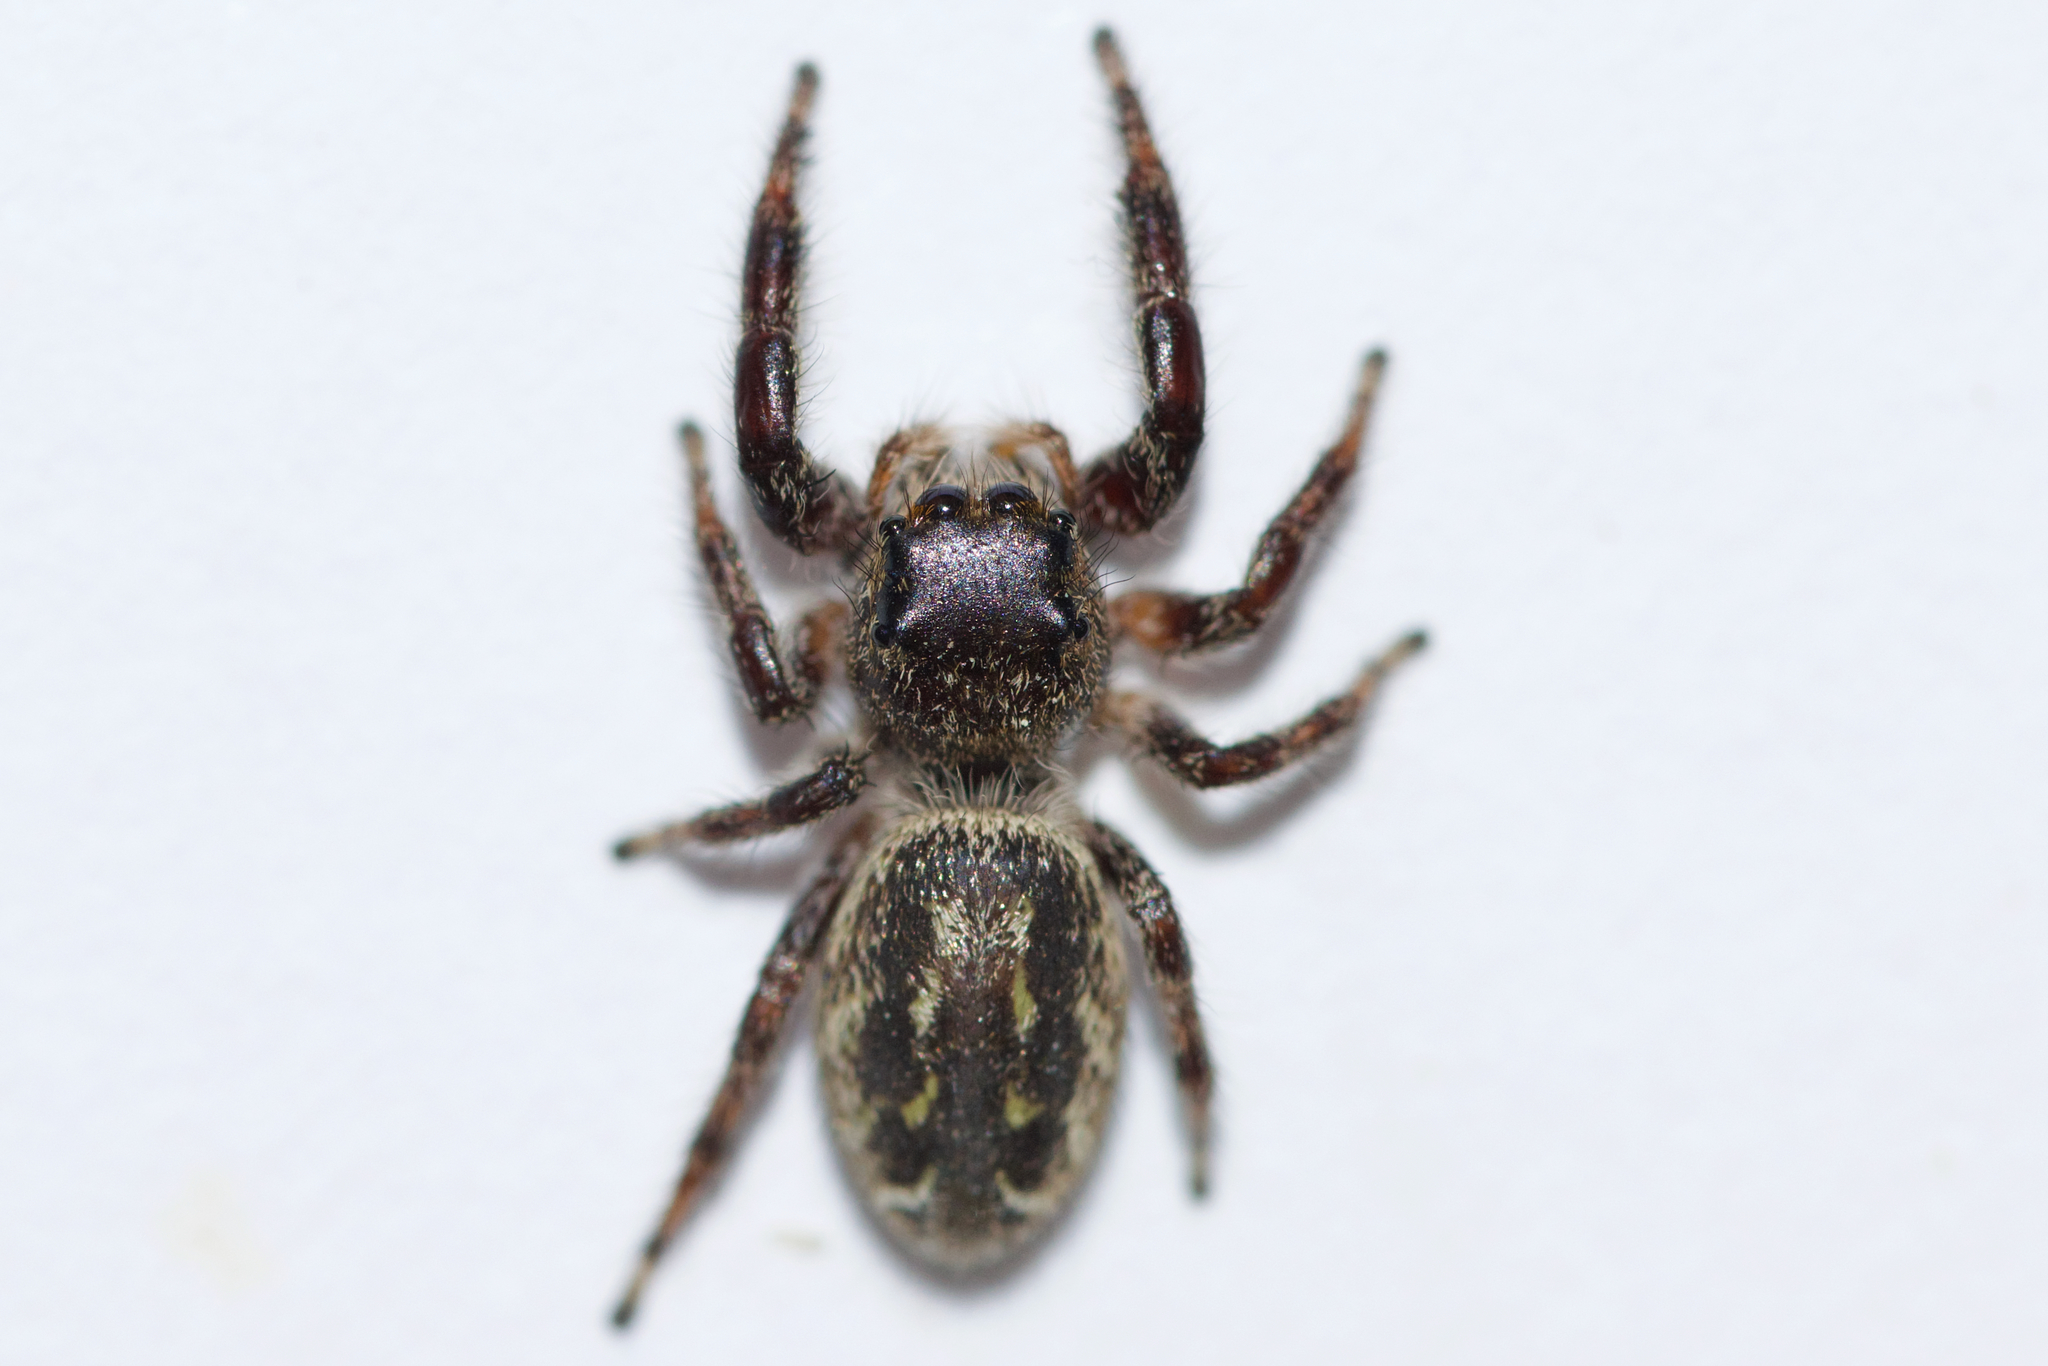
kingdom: Animalia
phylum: Arthropoda
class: Arachnida
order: Araneae
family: Salticidae
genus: Eris
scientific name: Eris militaris
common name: Bronze jumper
